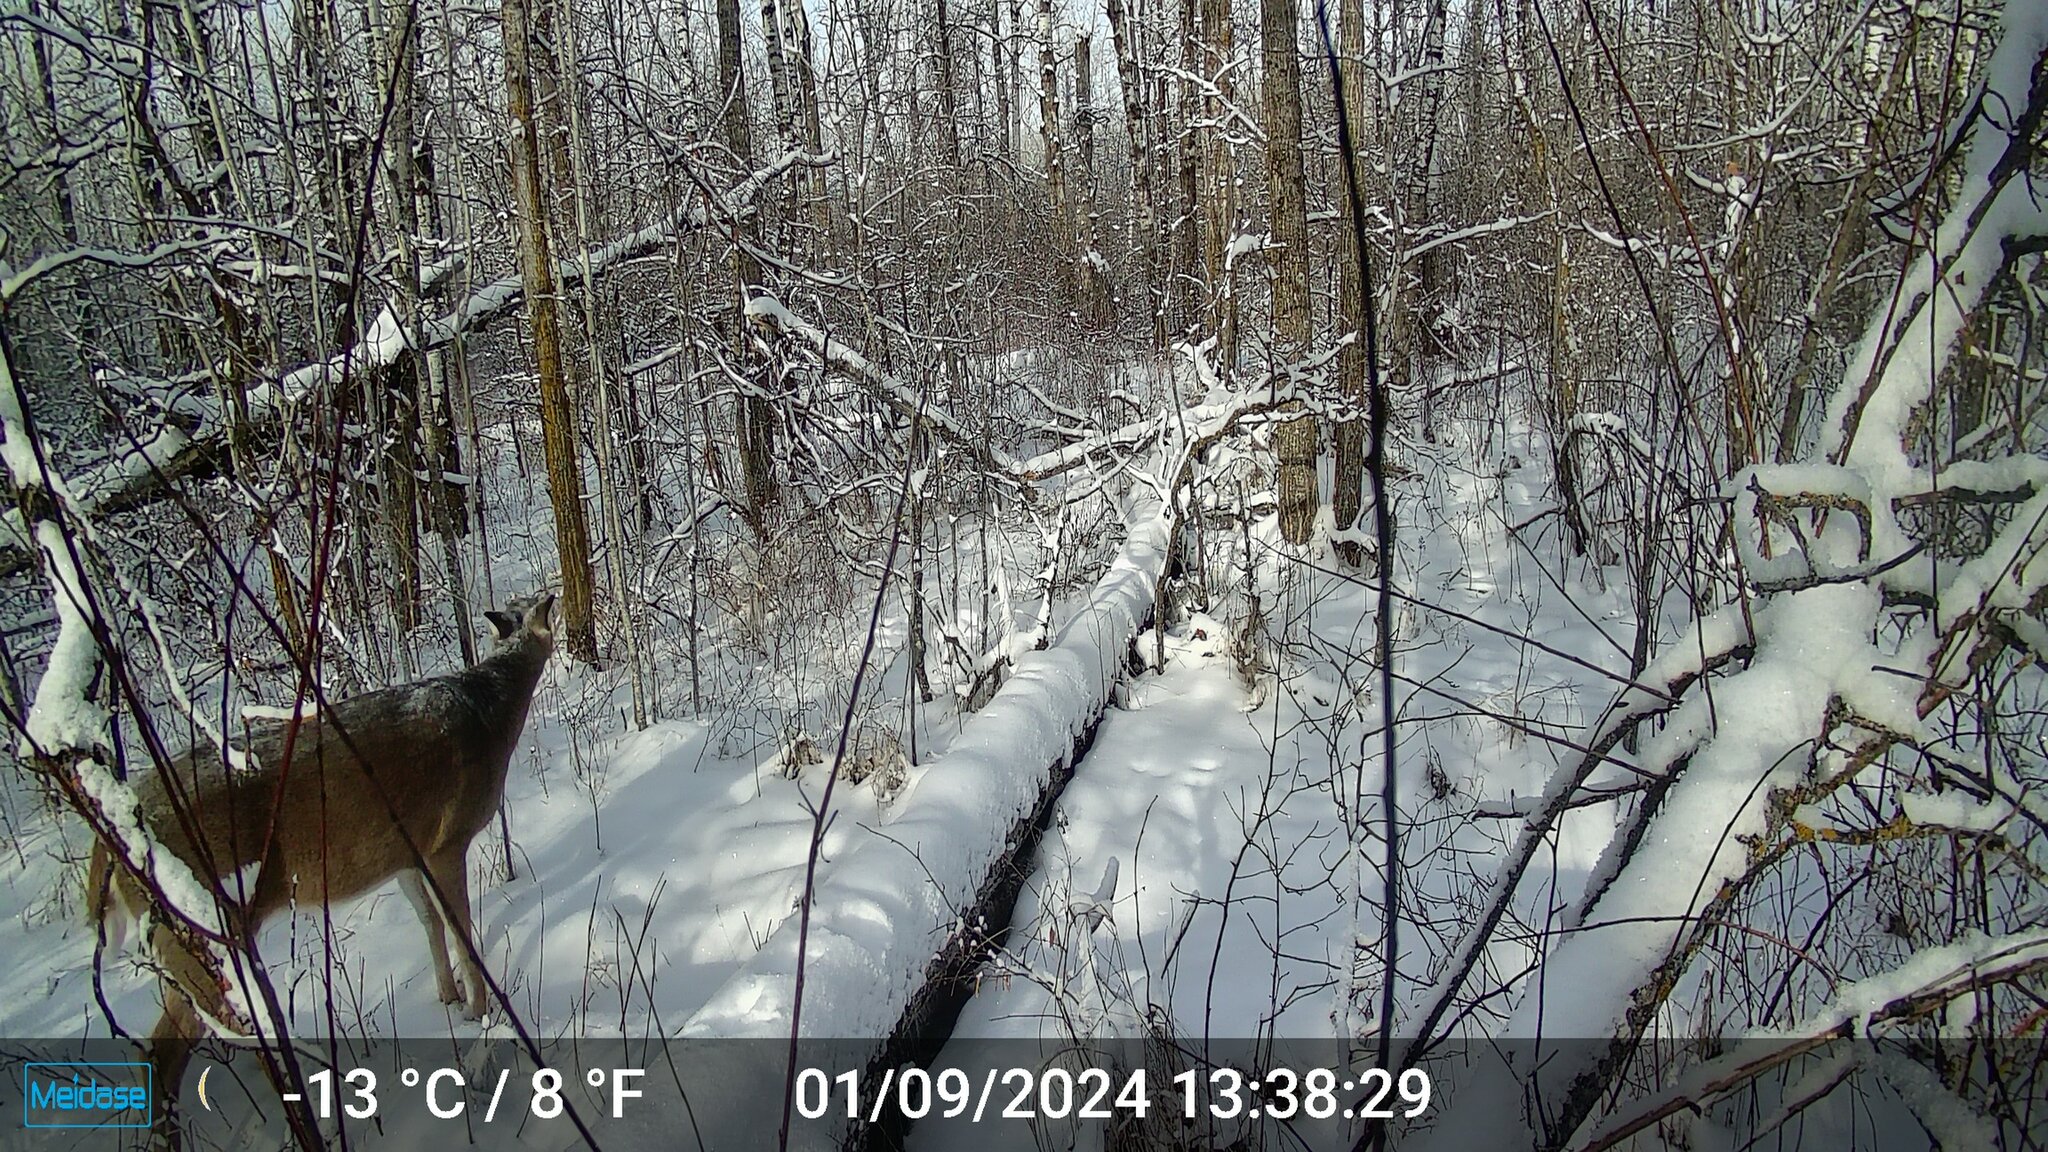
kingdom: Animalia
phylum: Chordata
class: Mammalia
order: Artiodactyla
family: Cervidae
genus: Odocoileus
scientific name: Odocoileus virginianus
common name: White-tailed deer
